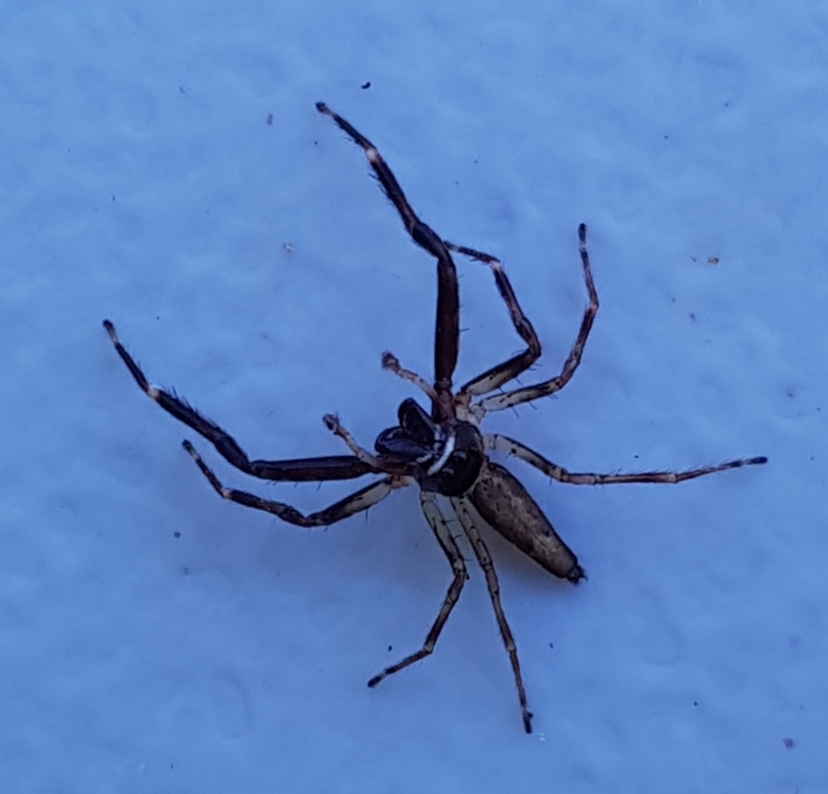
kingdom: Animalia
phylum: Arthropoda
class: Arachnida
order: Araneae
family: Salticidae
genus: Helpis
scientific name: Helpis minitabunda
